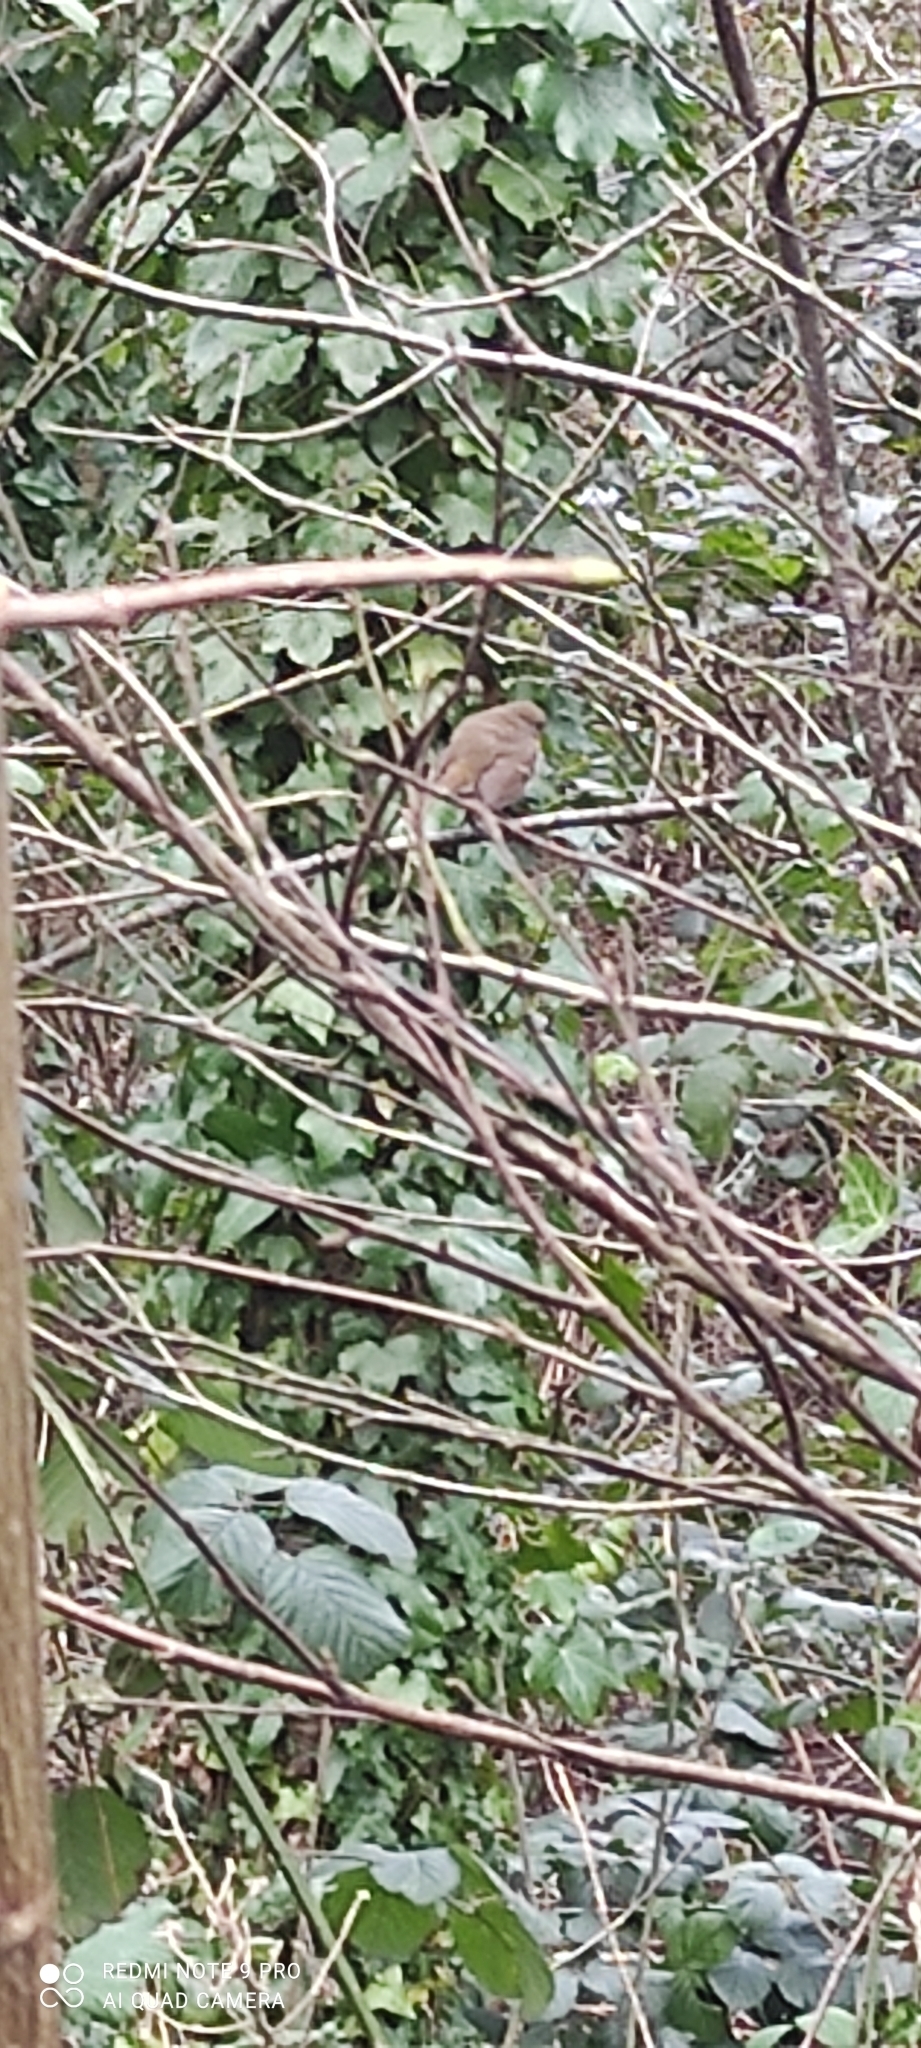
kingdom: Animalia
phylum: Chordata
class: Aves
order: Passeriformes
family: Muscicapidae
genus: Erithacus
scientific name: Erithacus rubecula
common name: European robin
